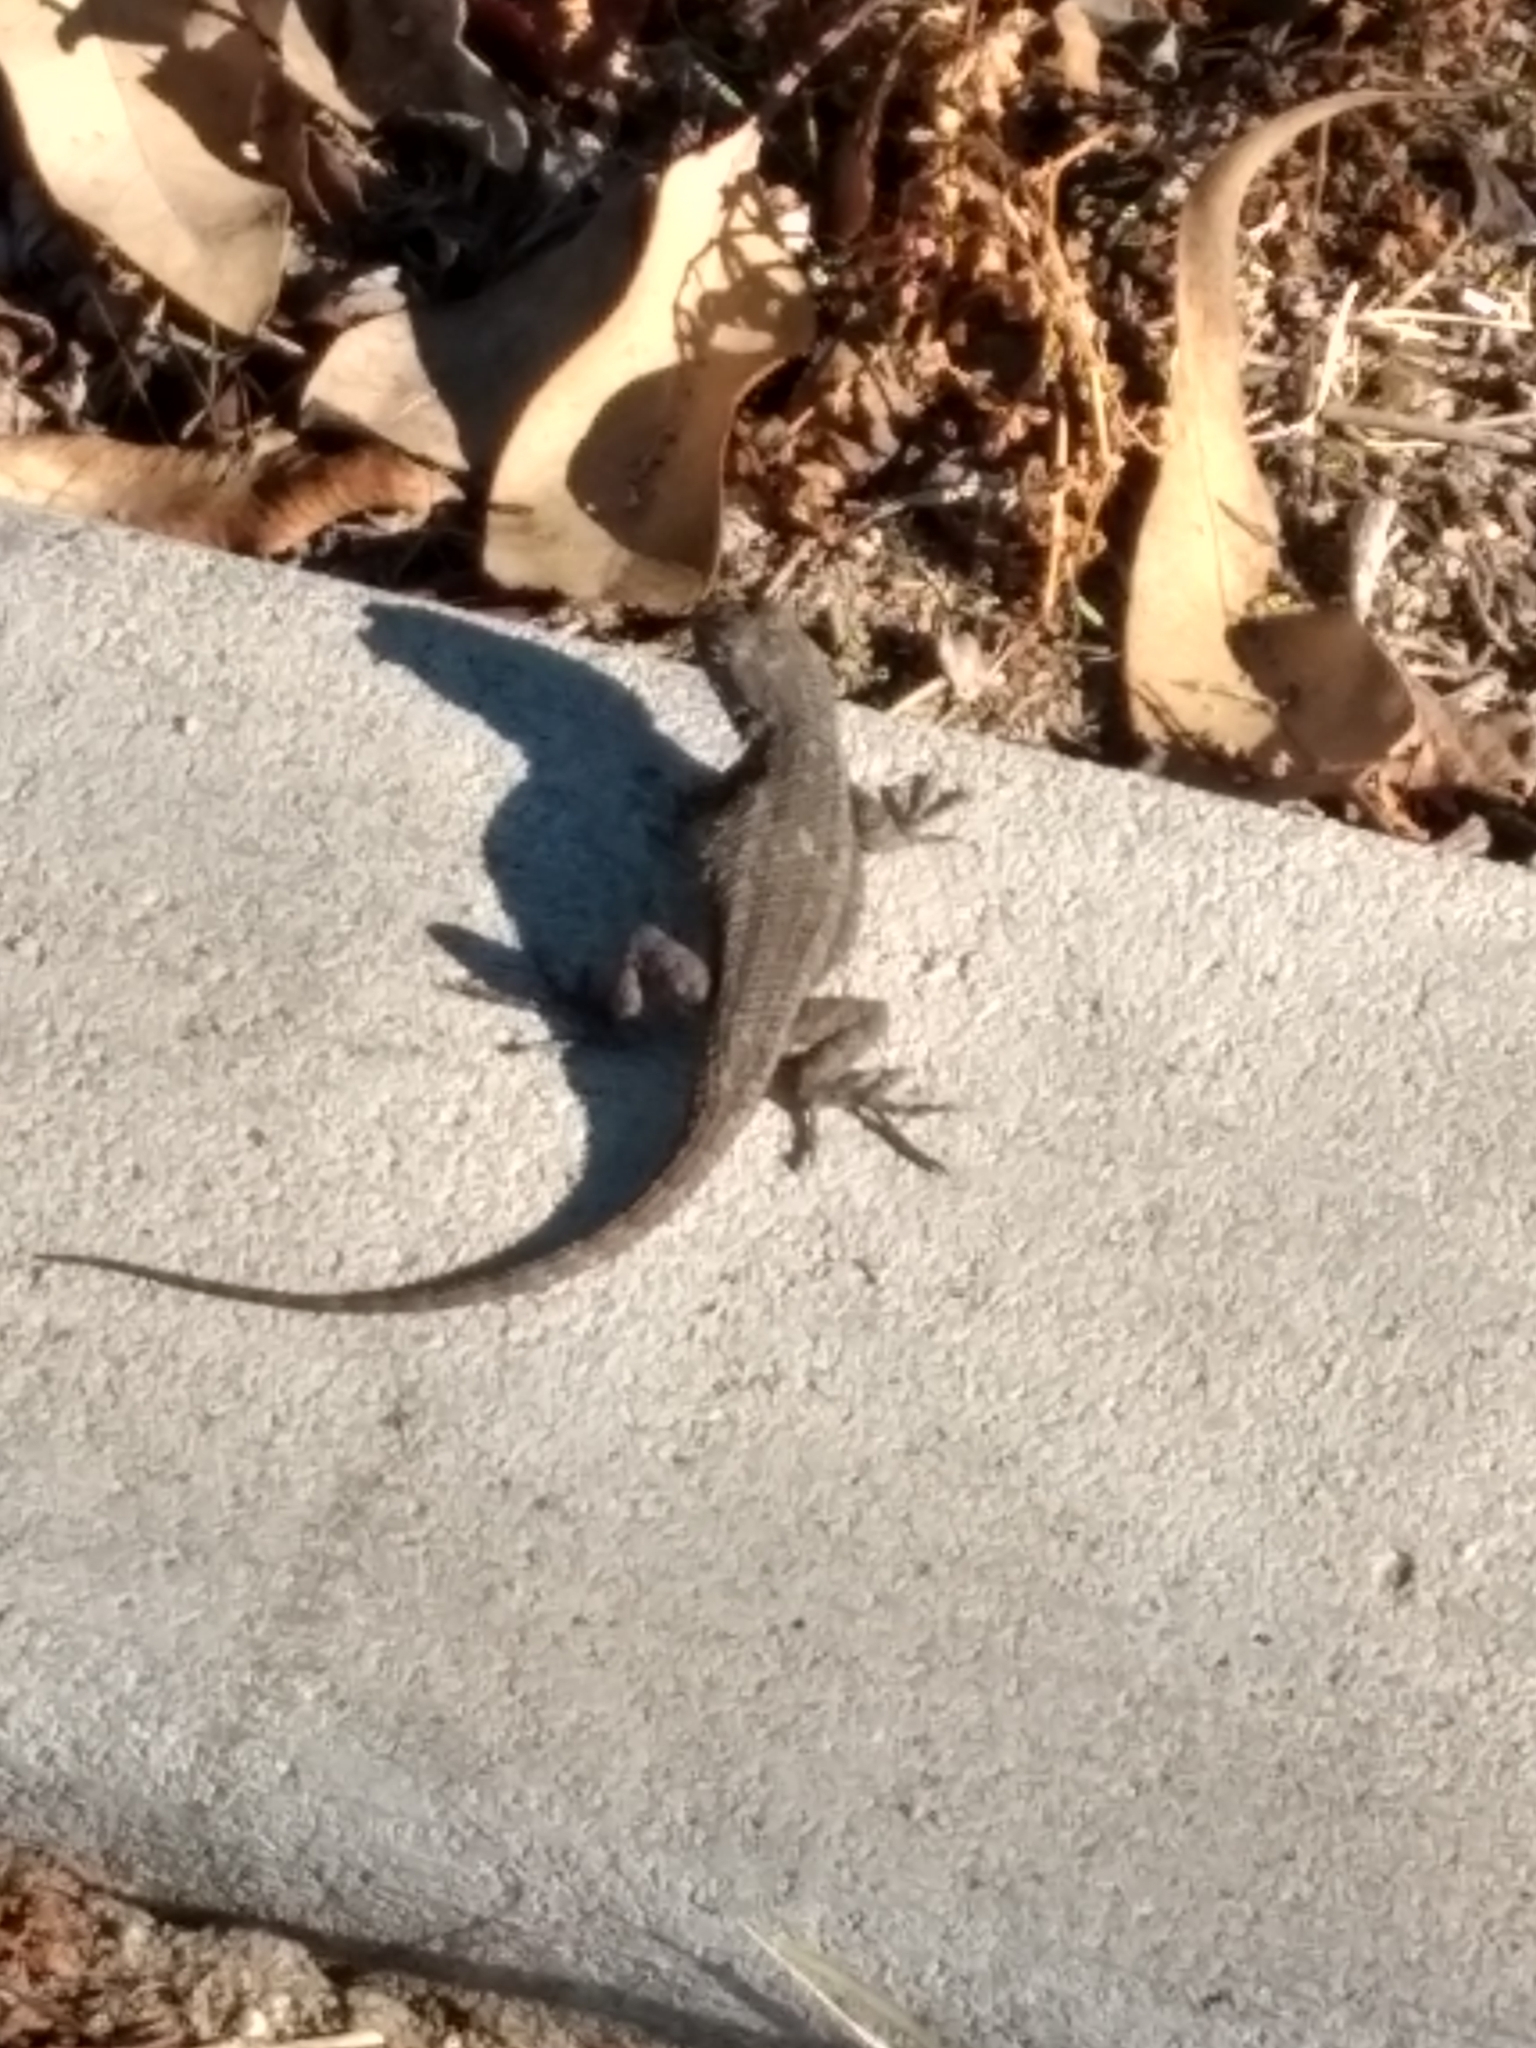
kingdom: Animalia
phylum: Chordata
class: Squamata
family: Phrynosomatidae
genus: Sceloporus
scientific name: Sceloporus occidentalis
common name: Western fence lizard
